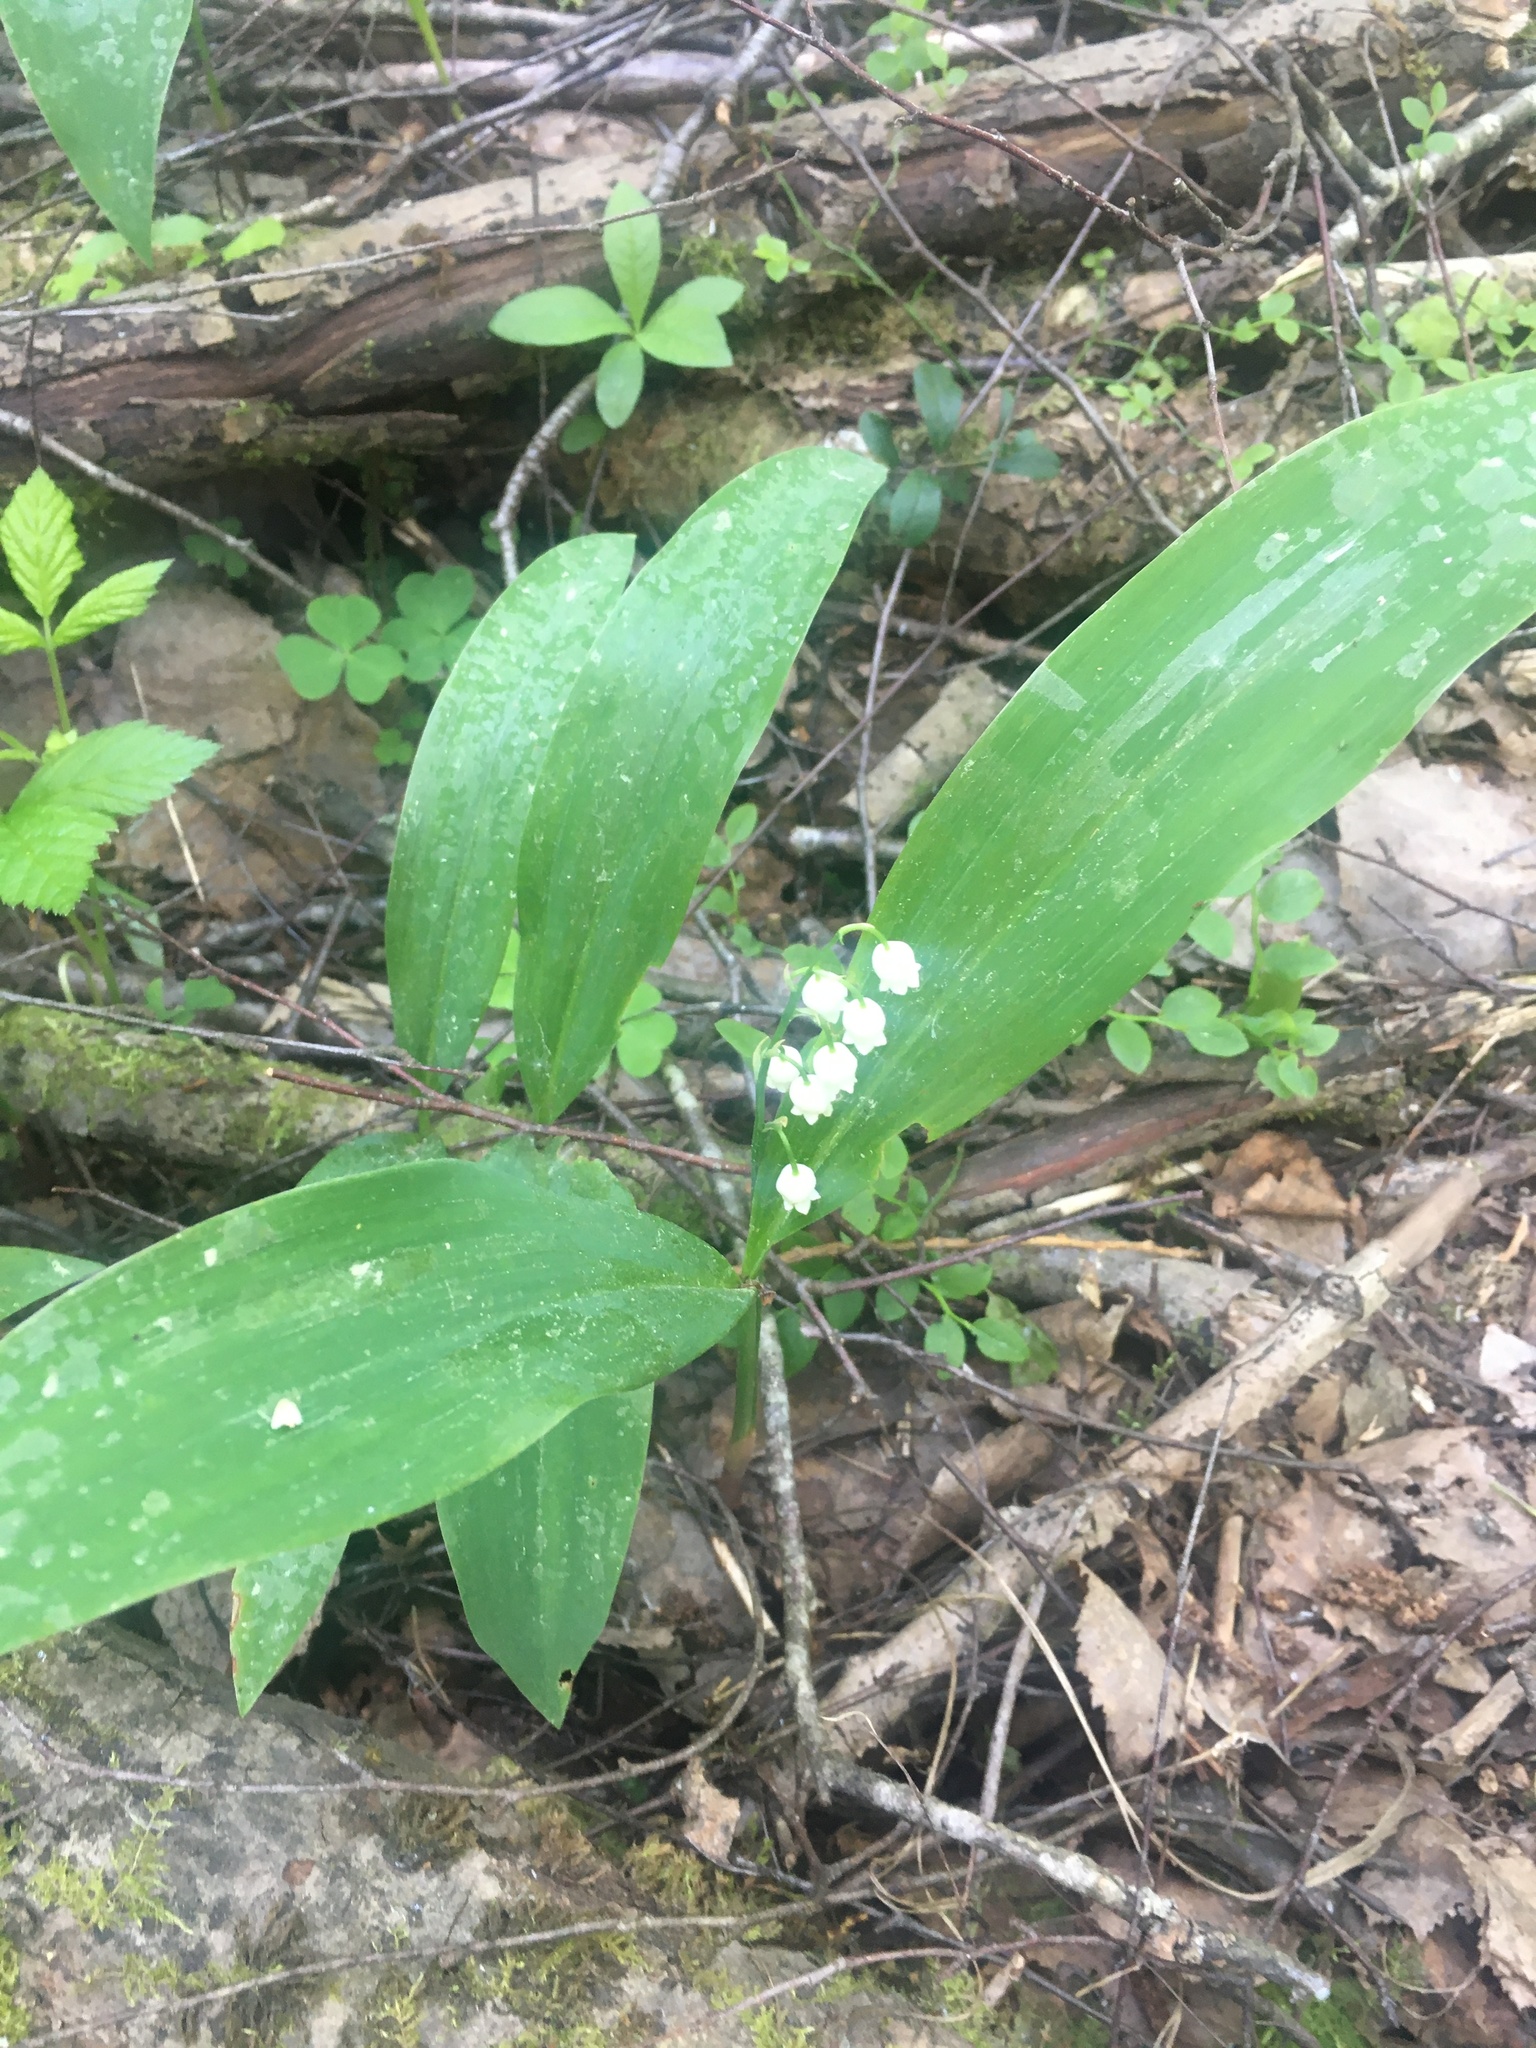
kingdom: Plantae
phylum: Tracheophyta
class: Liliopsida
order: Asparagales
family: Asparagaceae
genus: Convallaria
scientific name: Convallaria majalis
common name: Lily-of-the-valley
